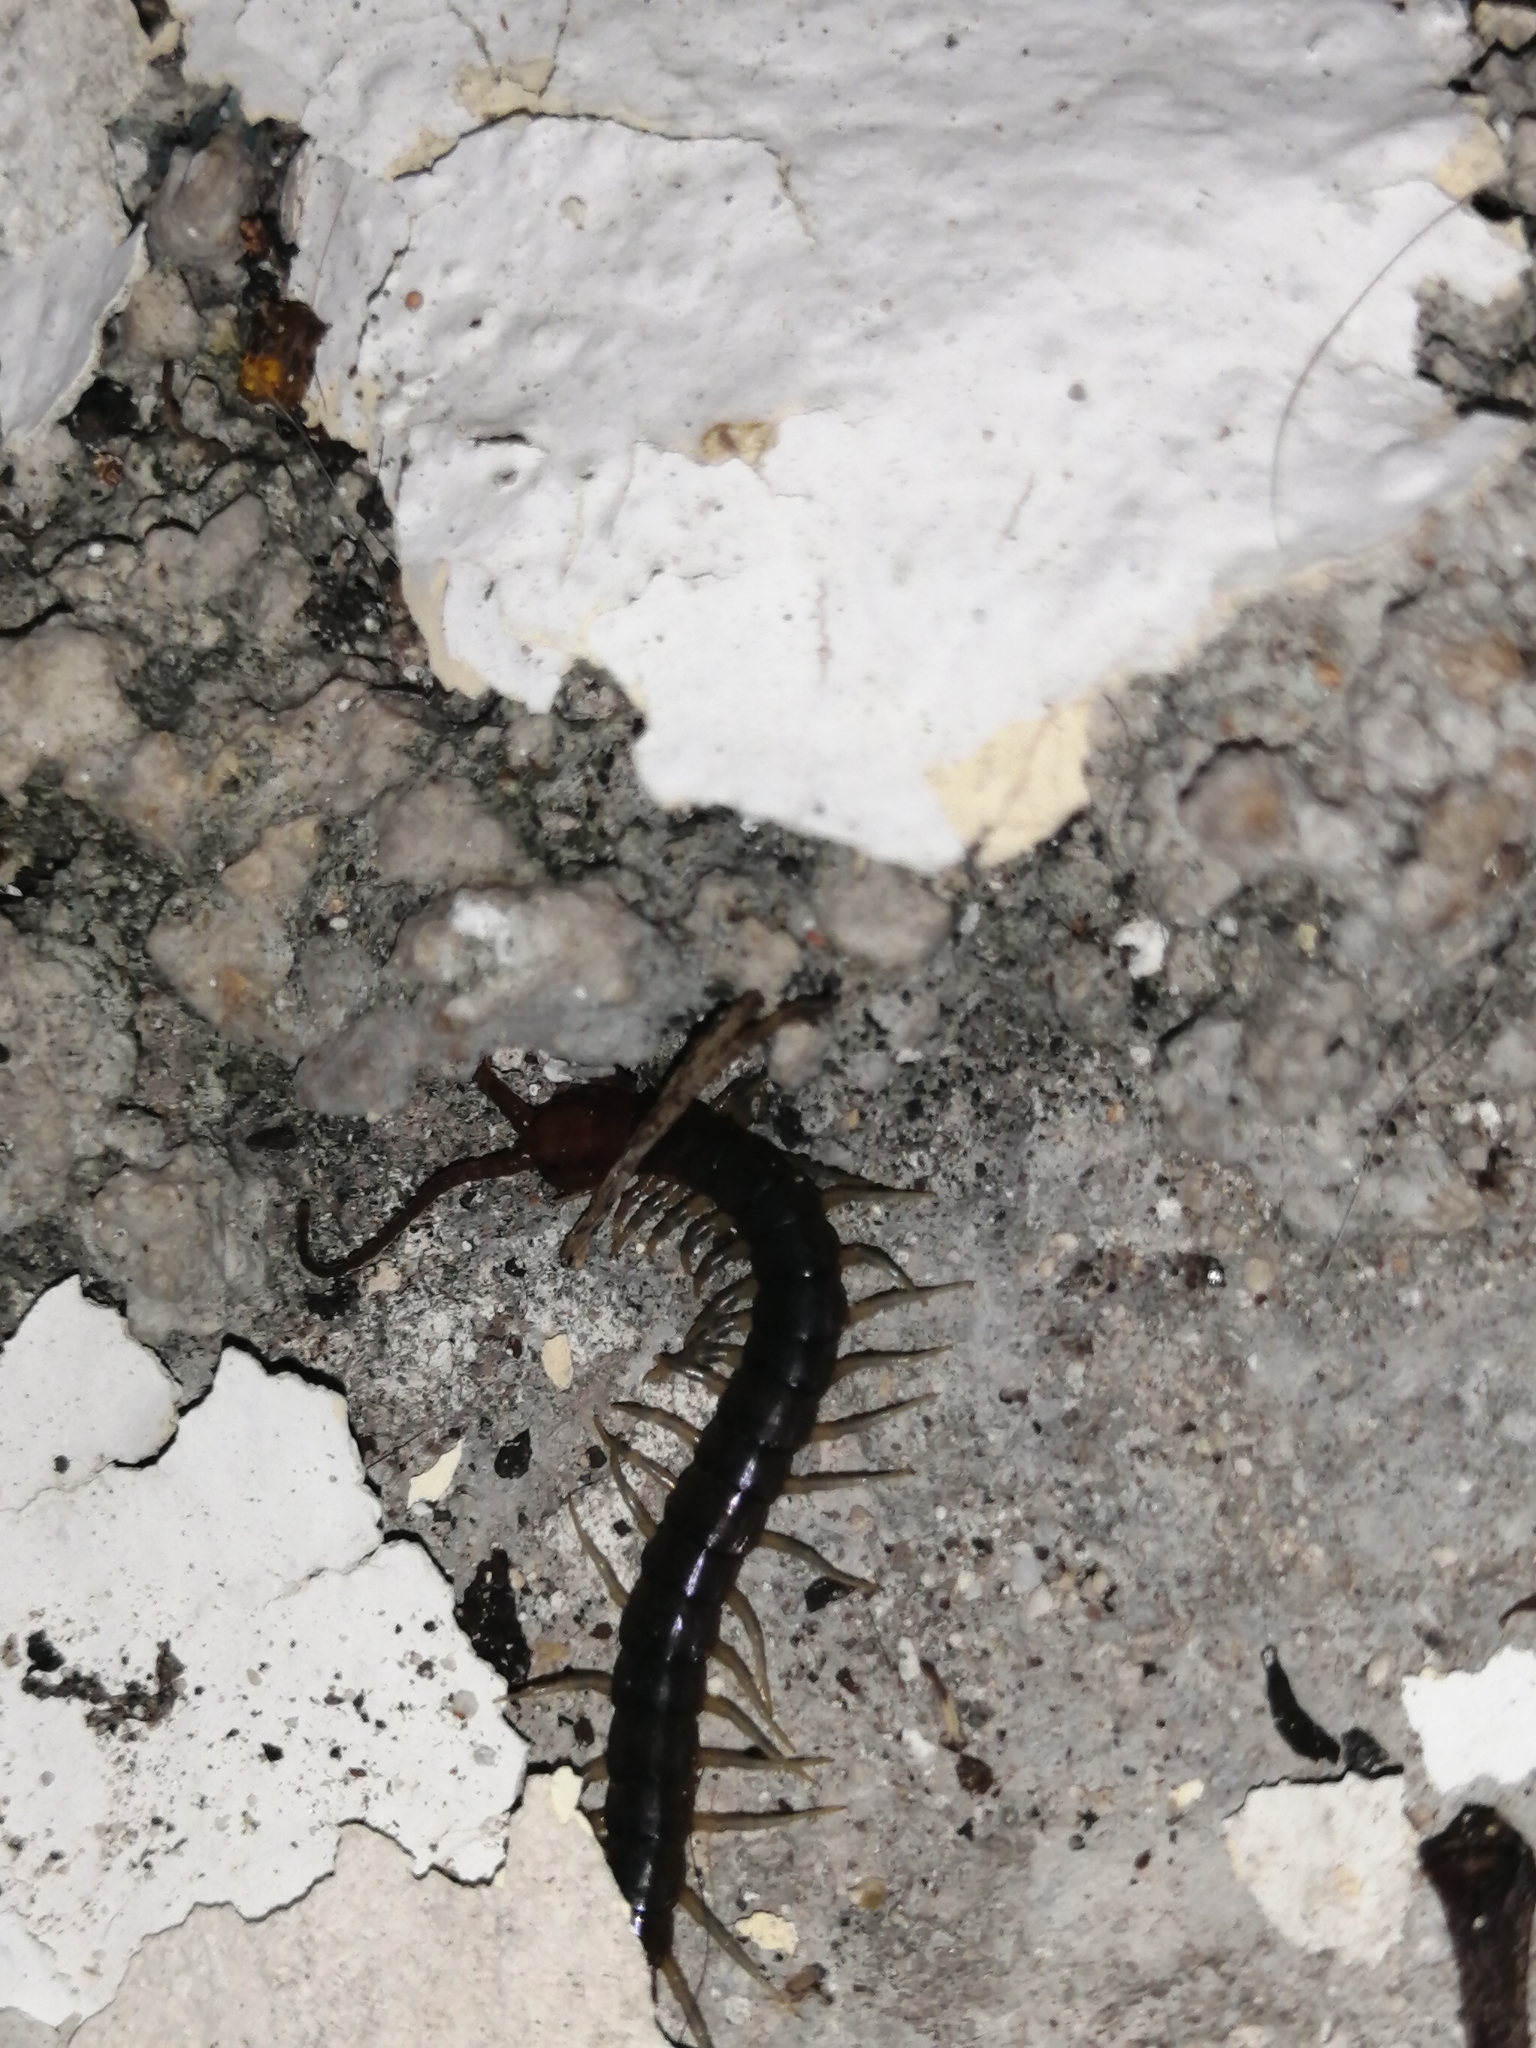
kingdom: Animalia
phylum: Arthropoda
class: Chilopoda
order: Scolopendromorpha
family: Scolopendridae
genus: Rhysida
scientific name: Rhysida longipes
